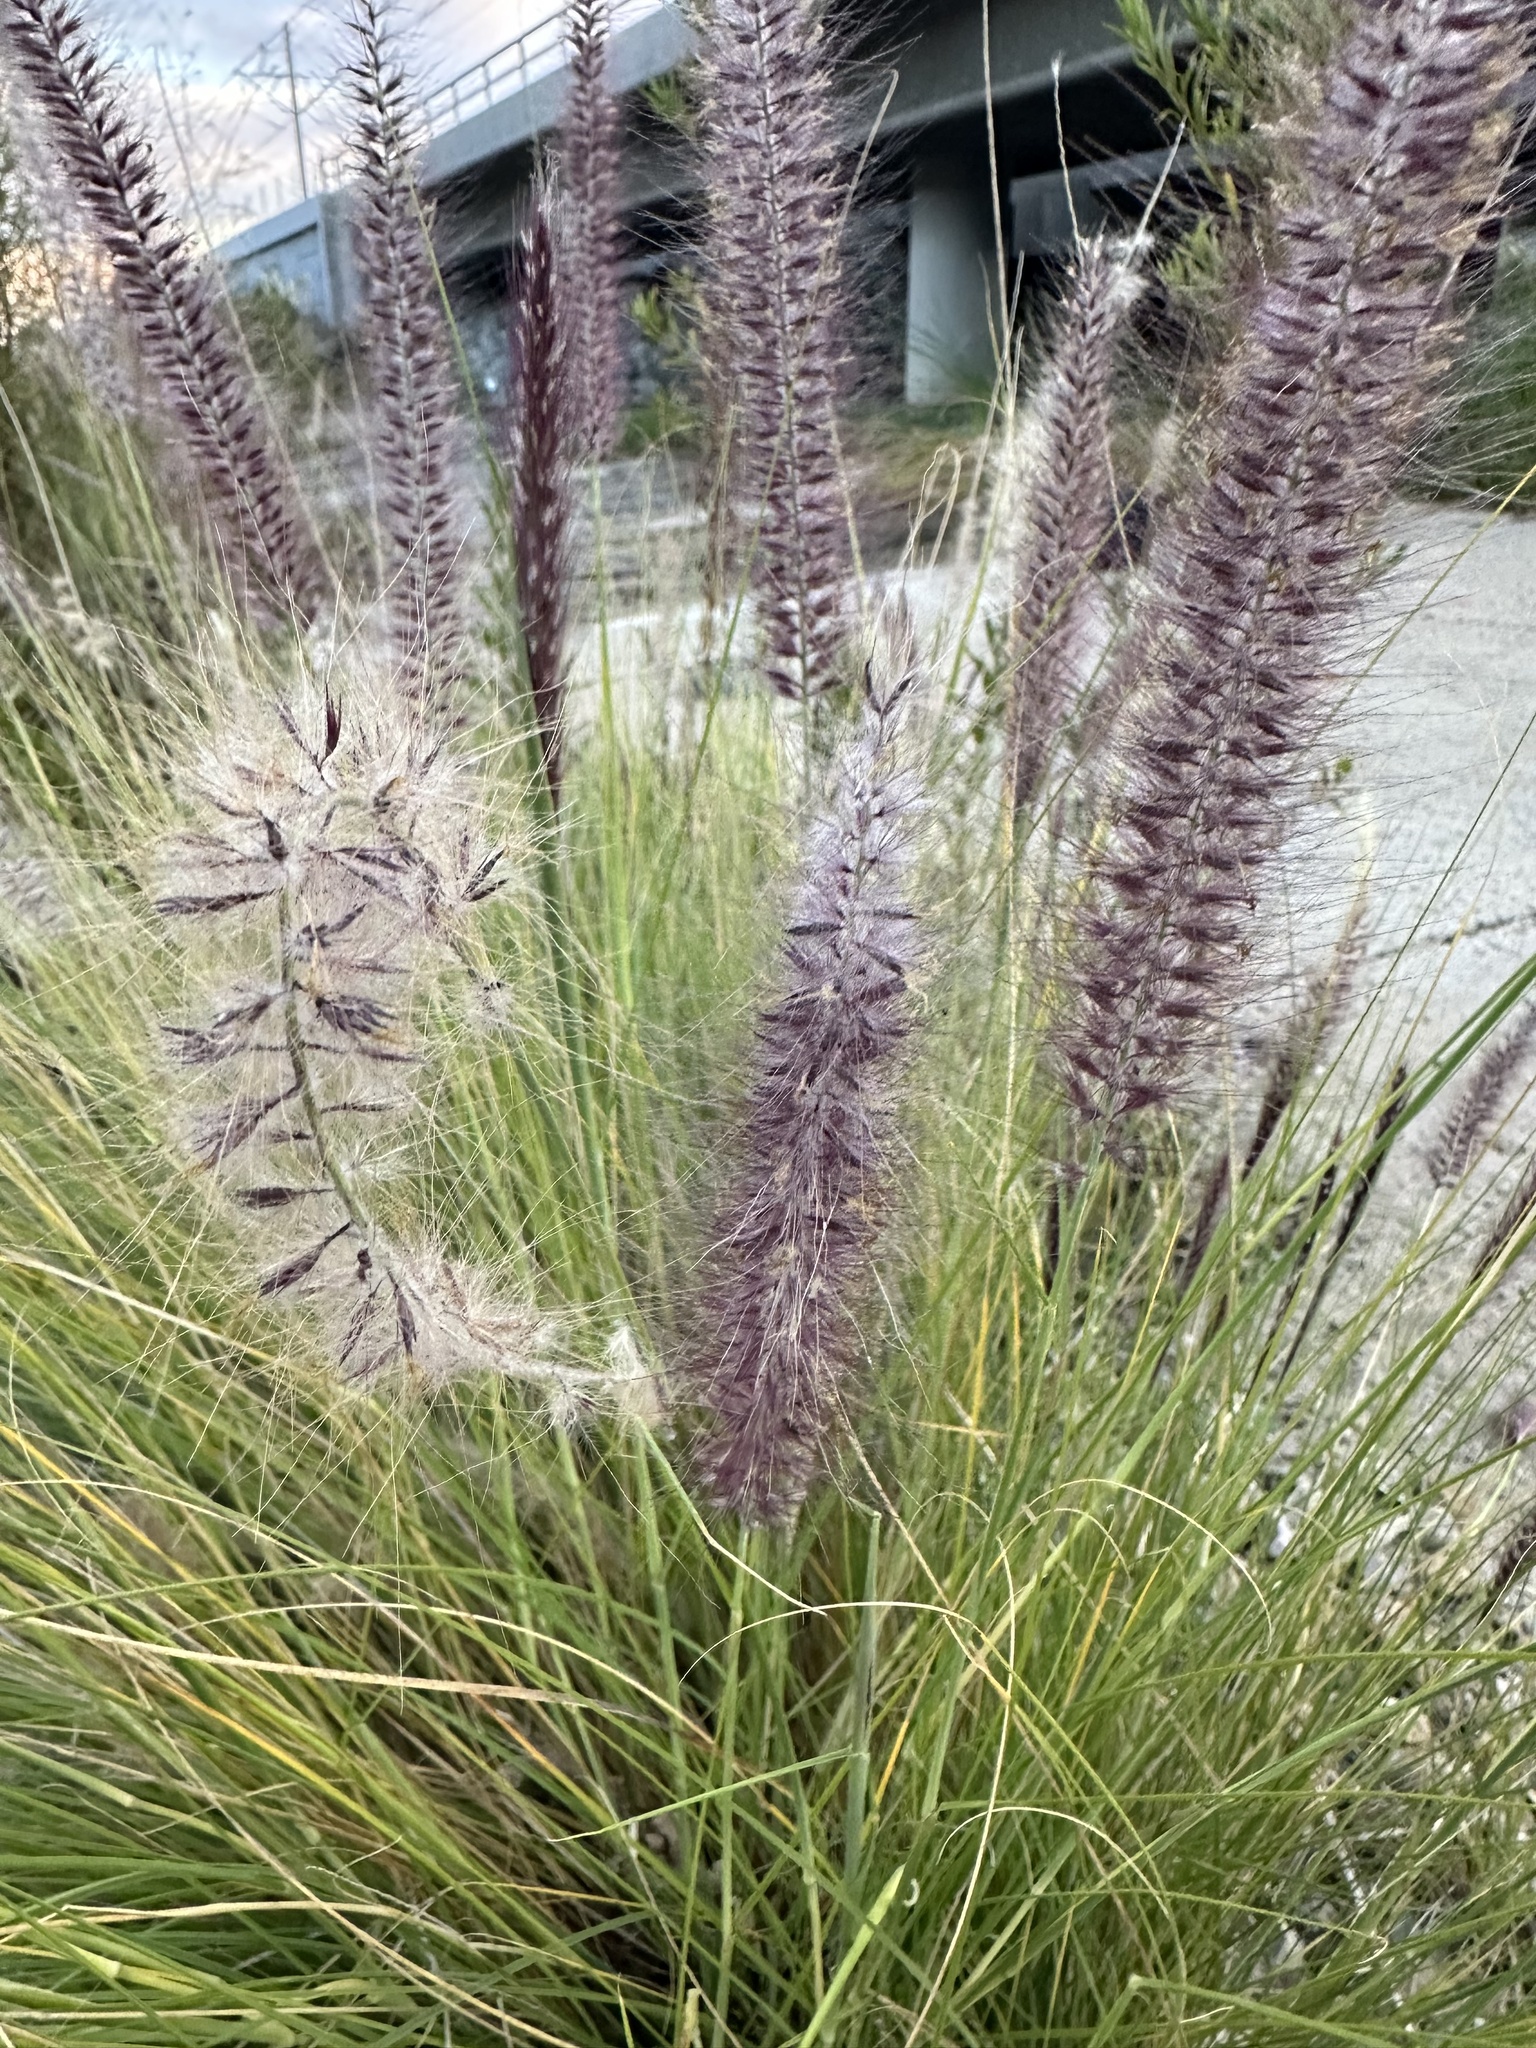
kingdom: Plantae
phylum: Tracheophyta
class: Liliopsida
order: Poales
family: Poaceae
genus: Cenchrus
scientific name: Cenchrus setaceus
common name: Crimson fountaingrass
